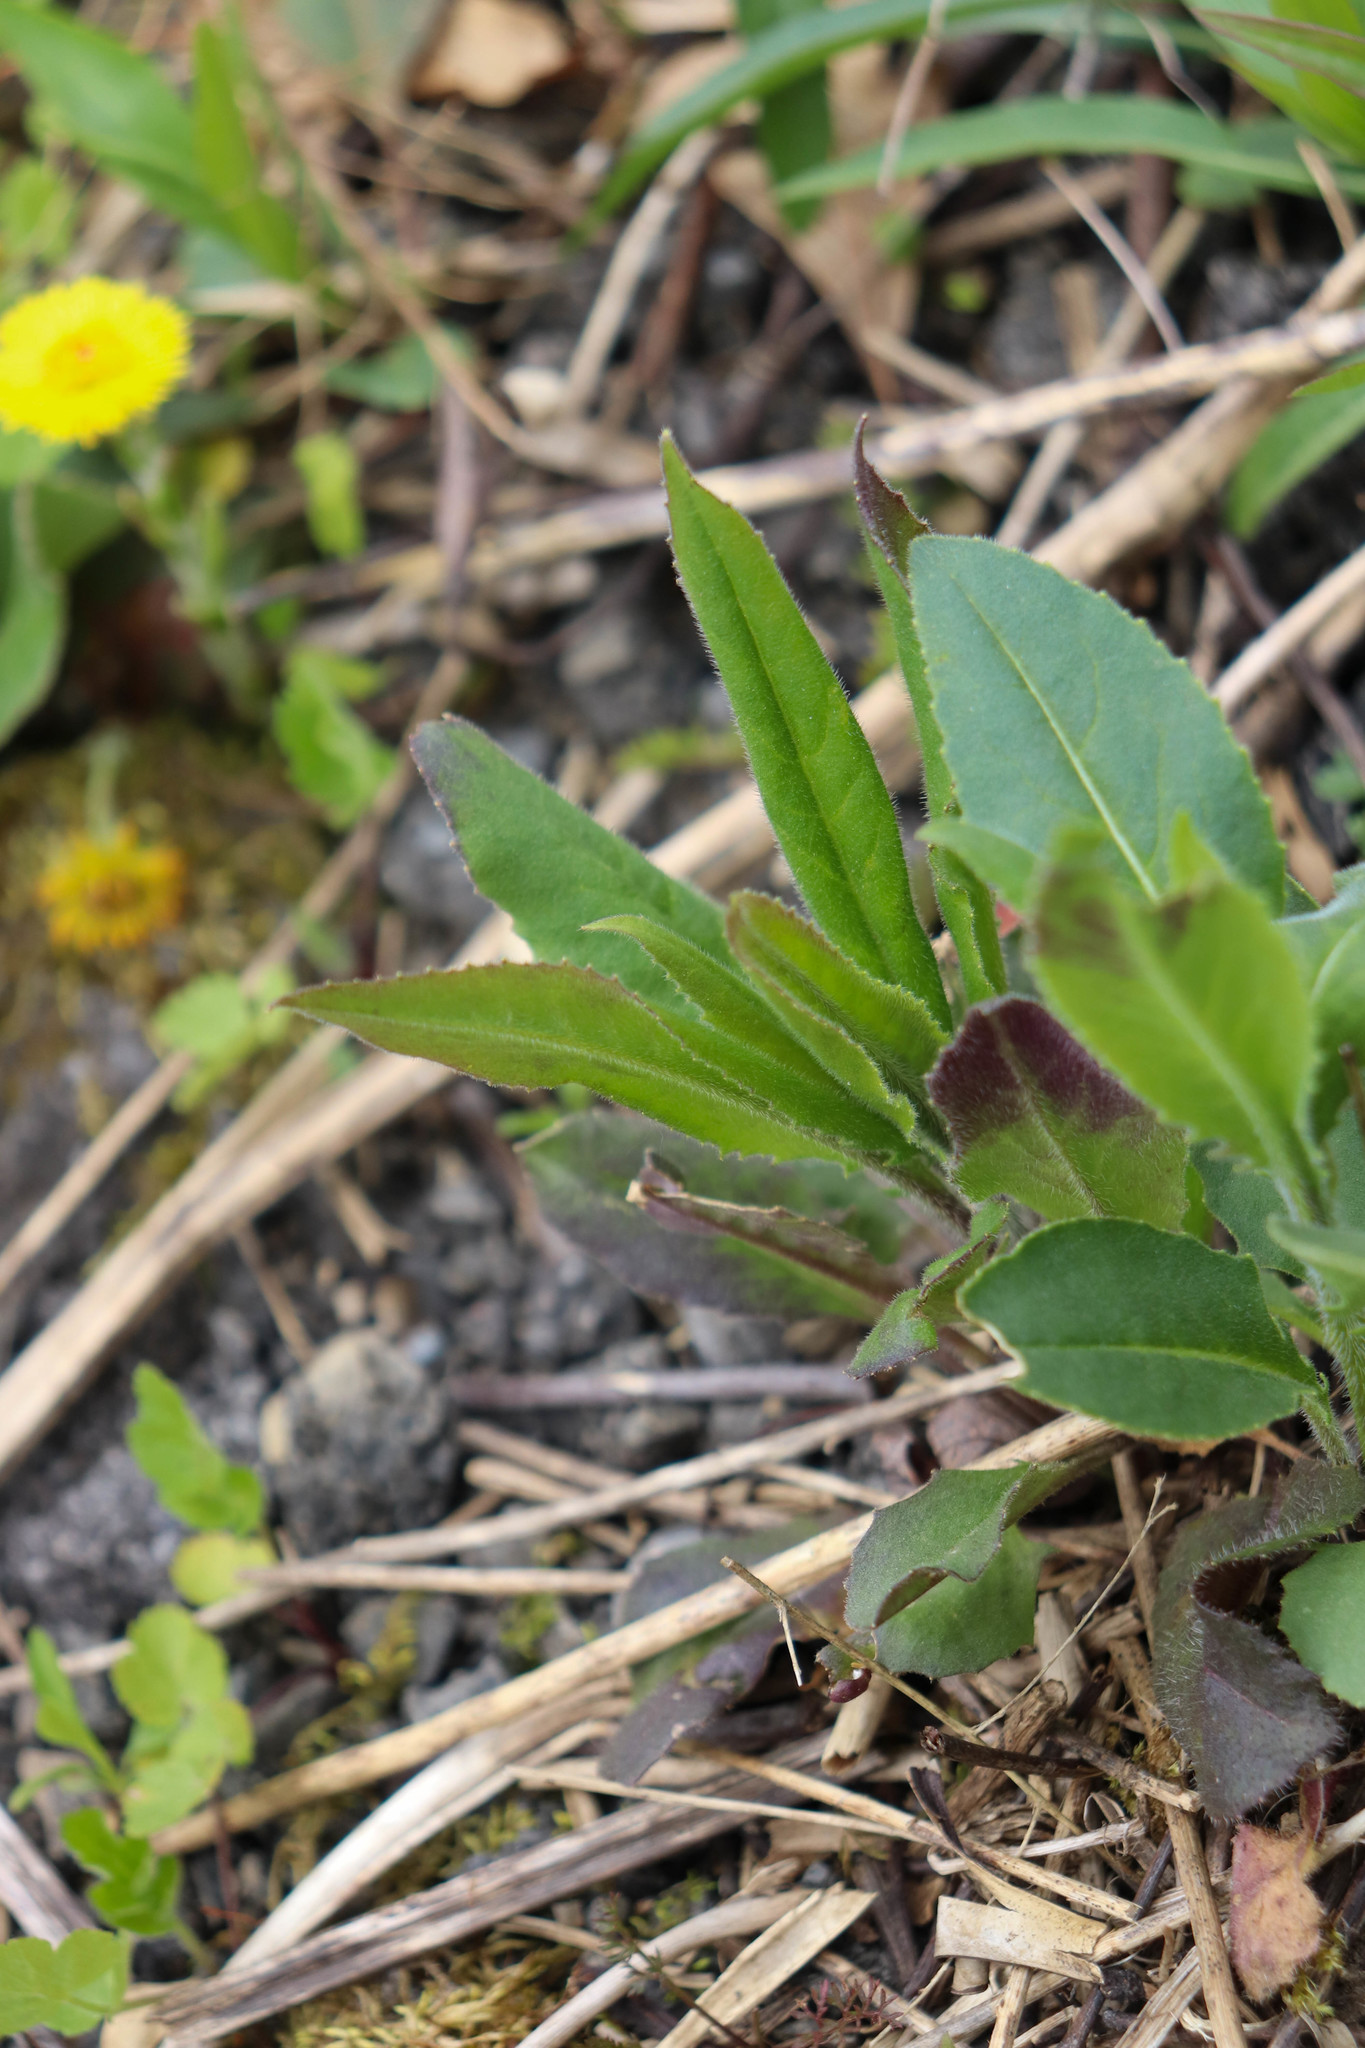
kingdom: Plantae
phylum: Tracheophyta
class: Magnoliopsida
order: Brassicales
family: Brassicaceae
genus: Hesperis
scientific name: Hesperis matronalis
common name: Dame's-violet
